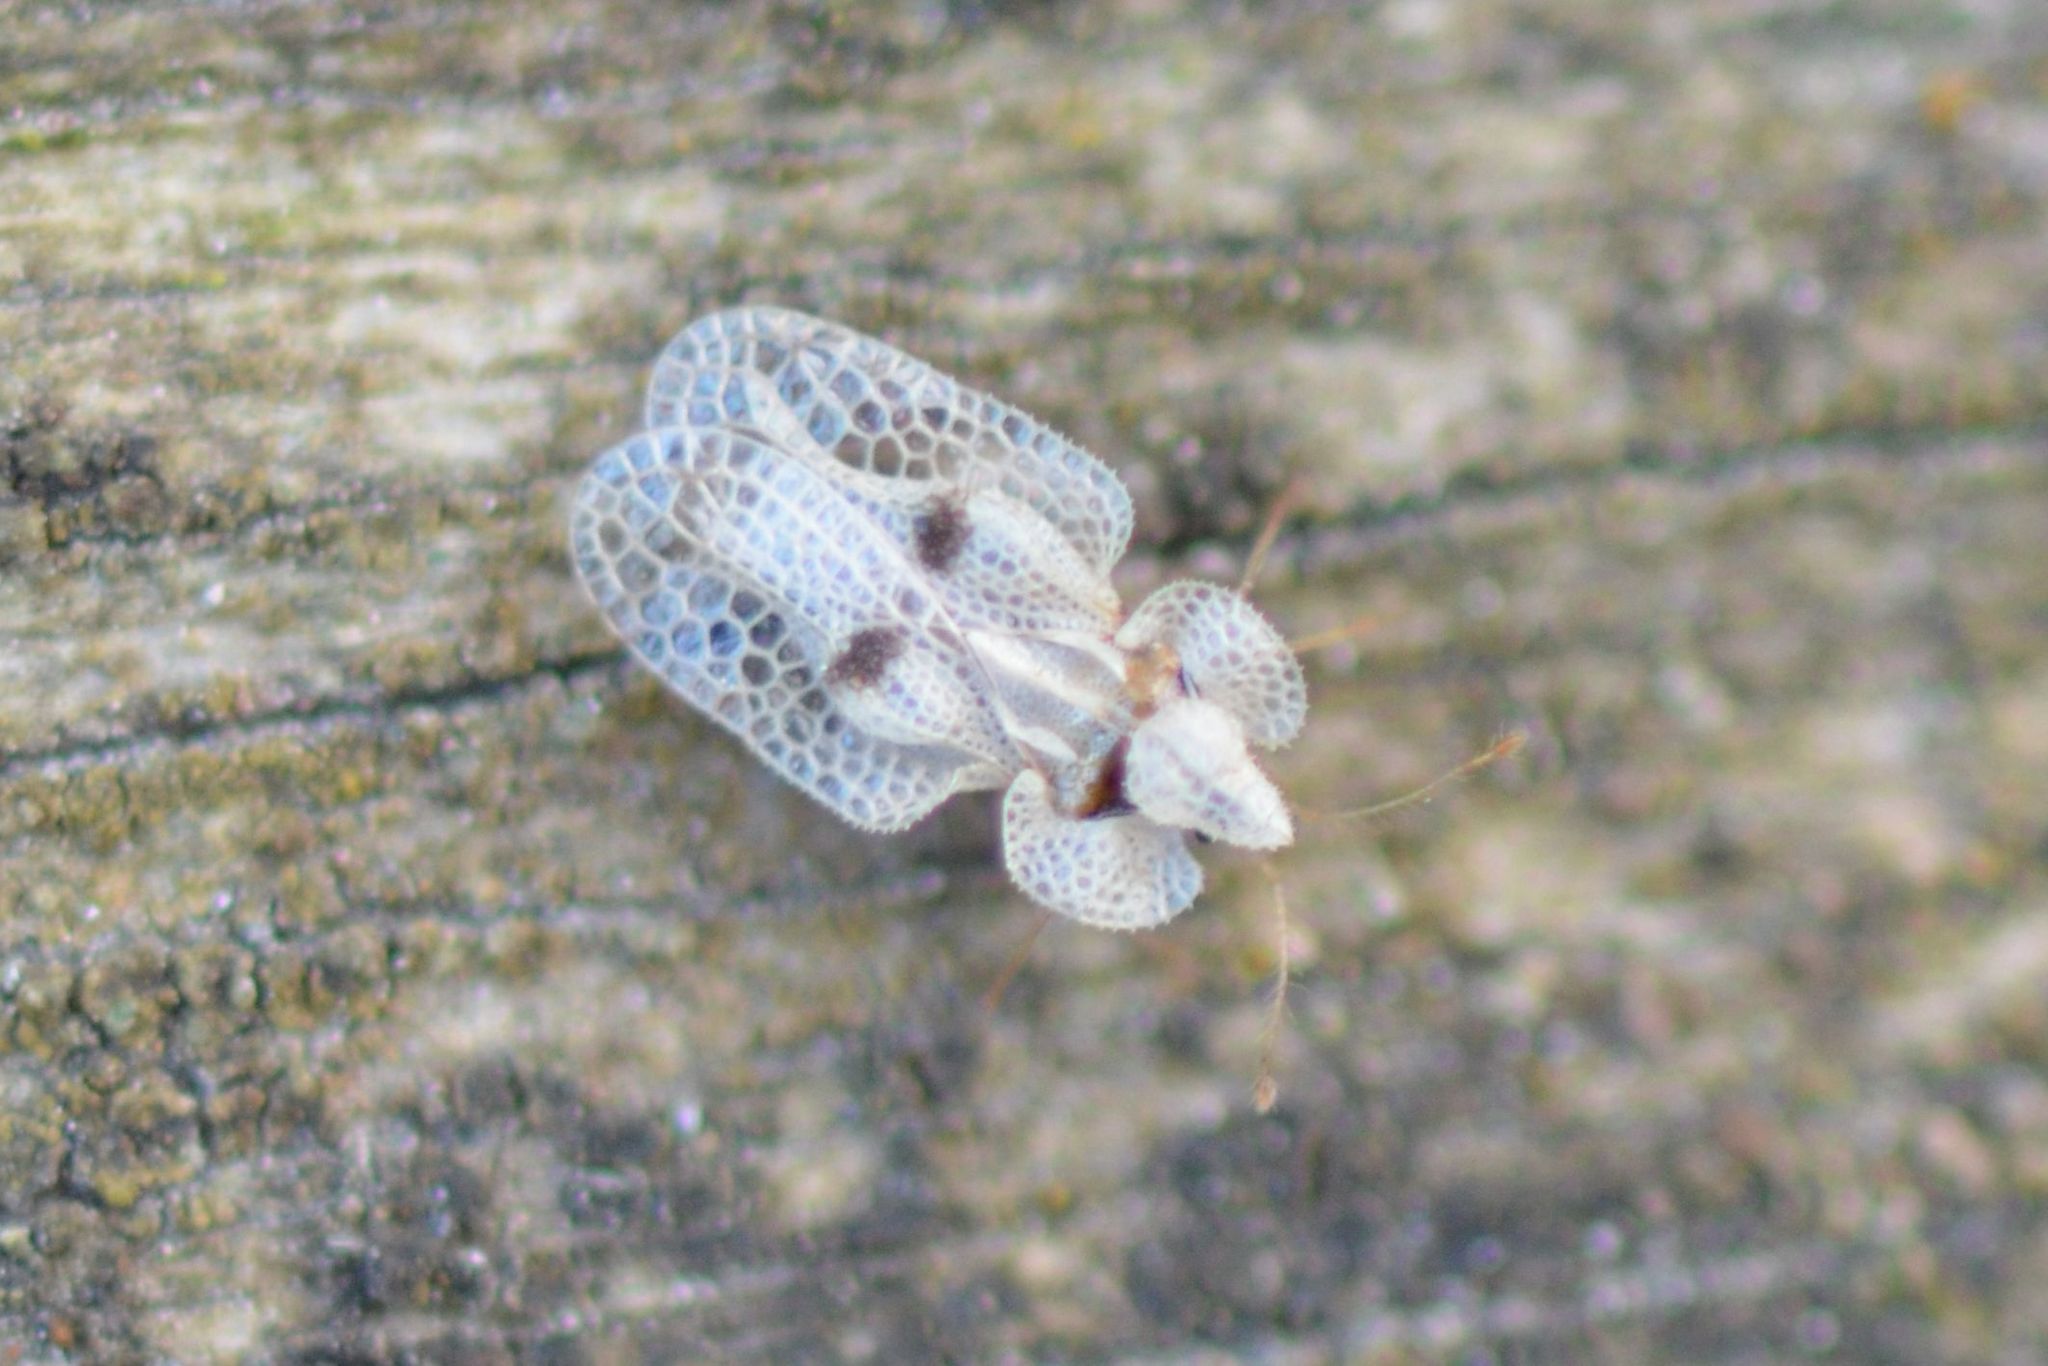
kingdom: Animalia
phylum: Arthropoda
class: Insecta
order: Hemiptera
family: Tingidae
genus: Corythucha
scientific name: Corythucha ciliata
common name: Sycamore lace bug
